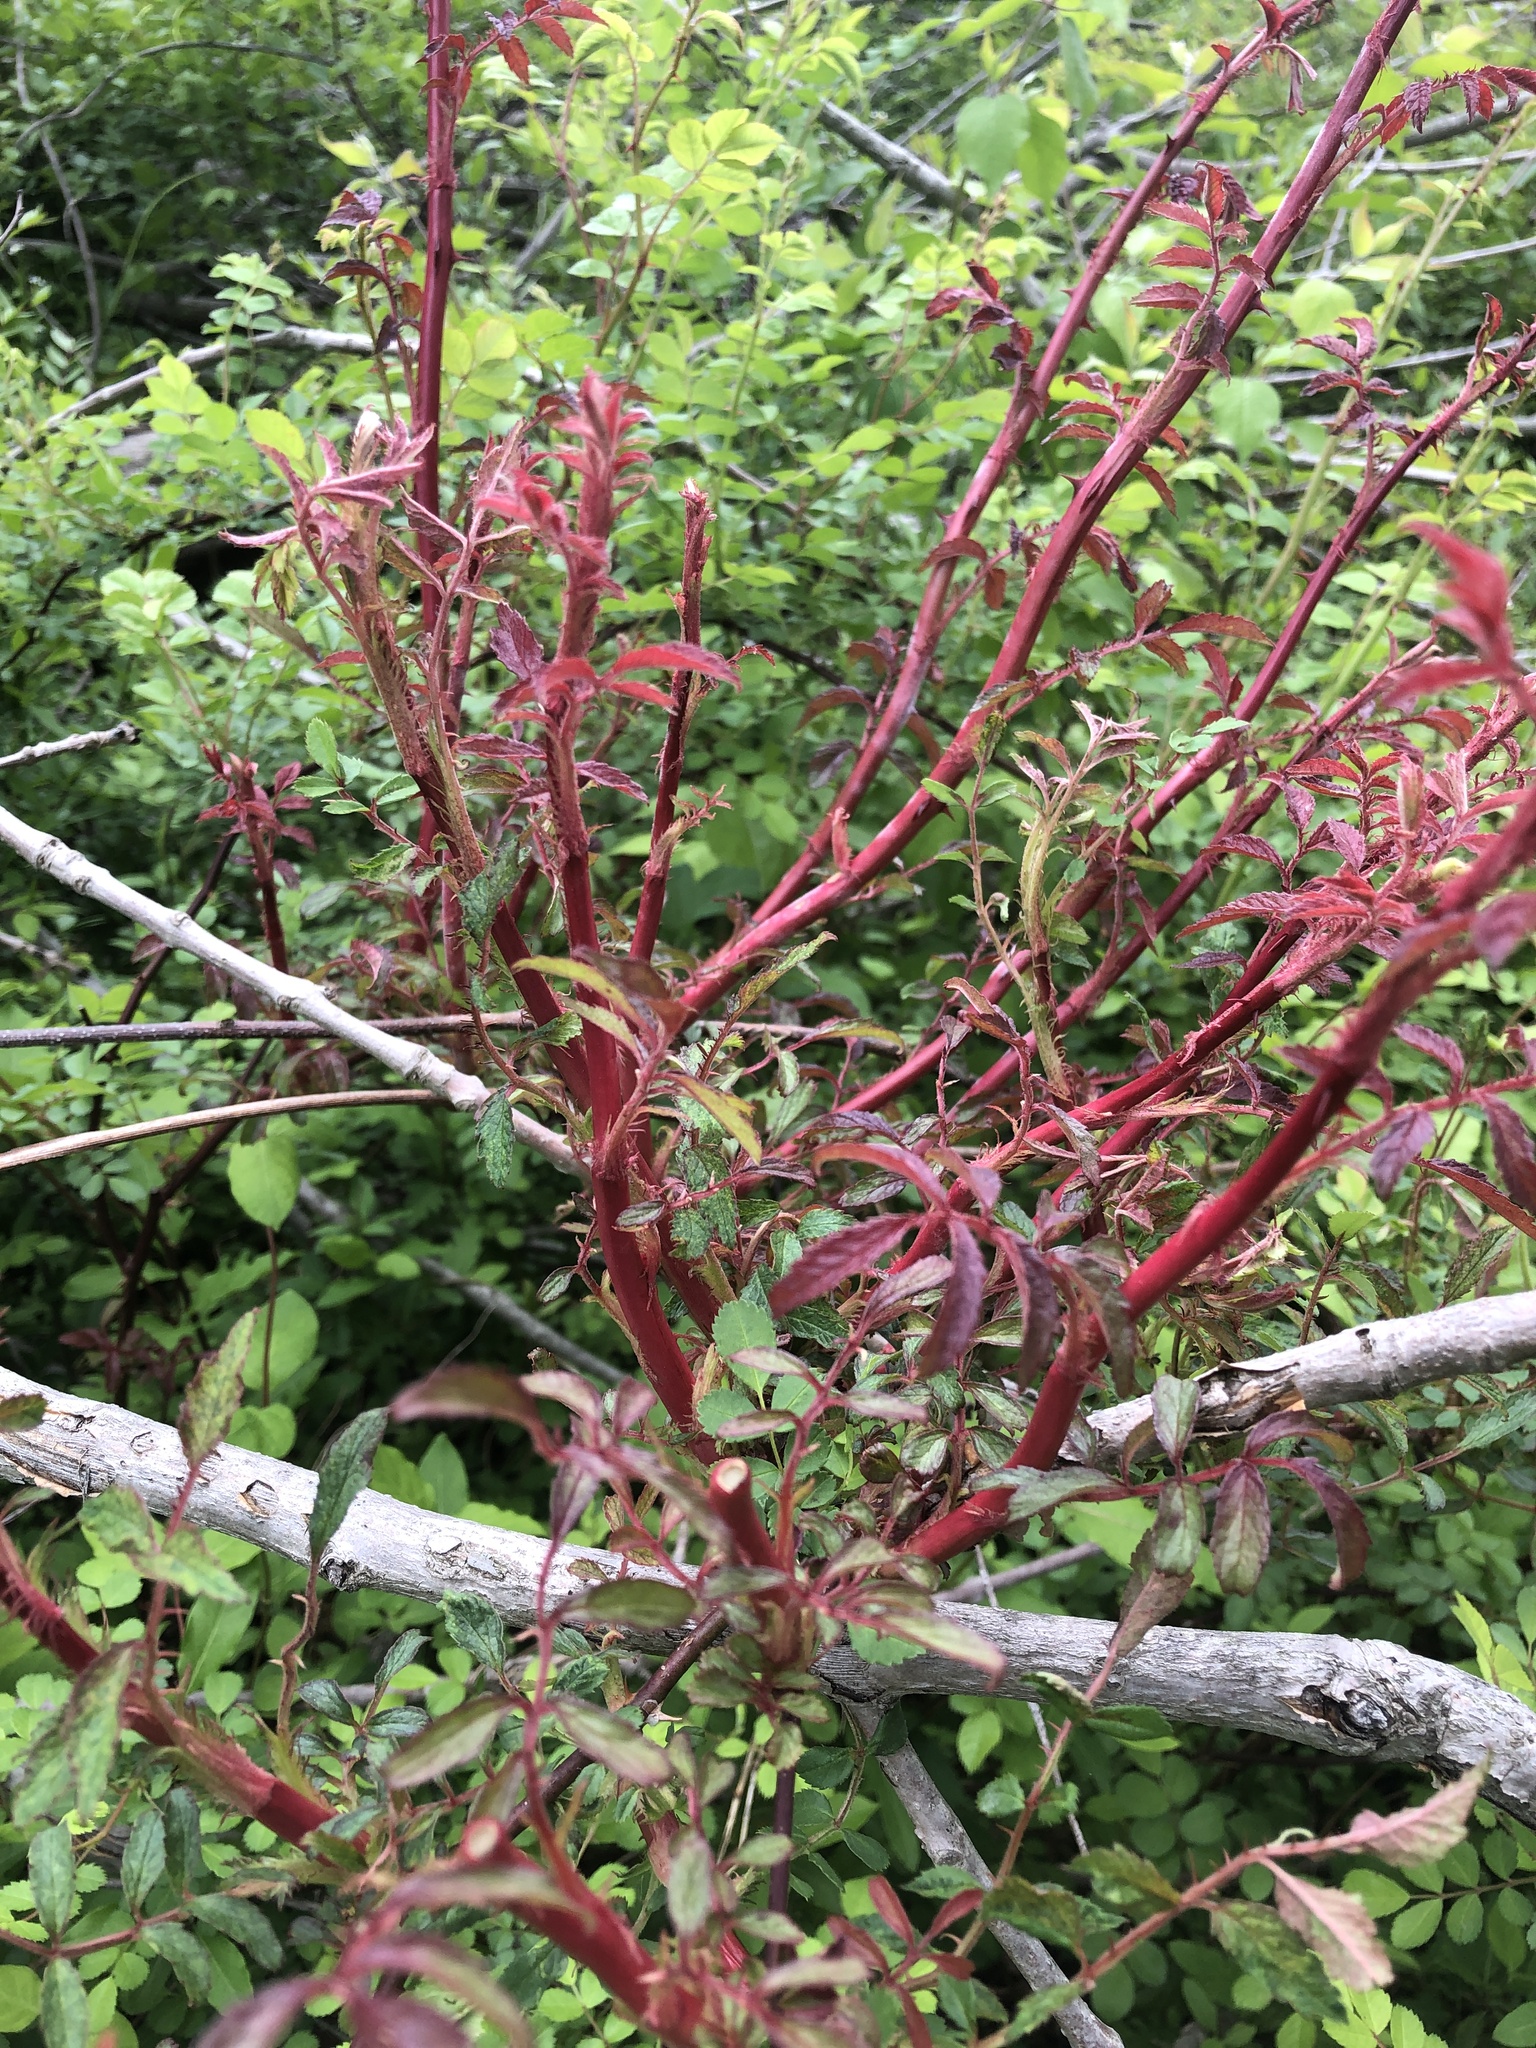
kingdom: Viruses
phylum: Negarnaviricota
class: Ellioviricetes
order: Bunyavirales
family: Fimoviridae
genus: Emaravirus
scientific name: Emaravirus rosae
